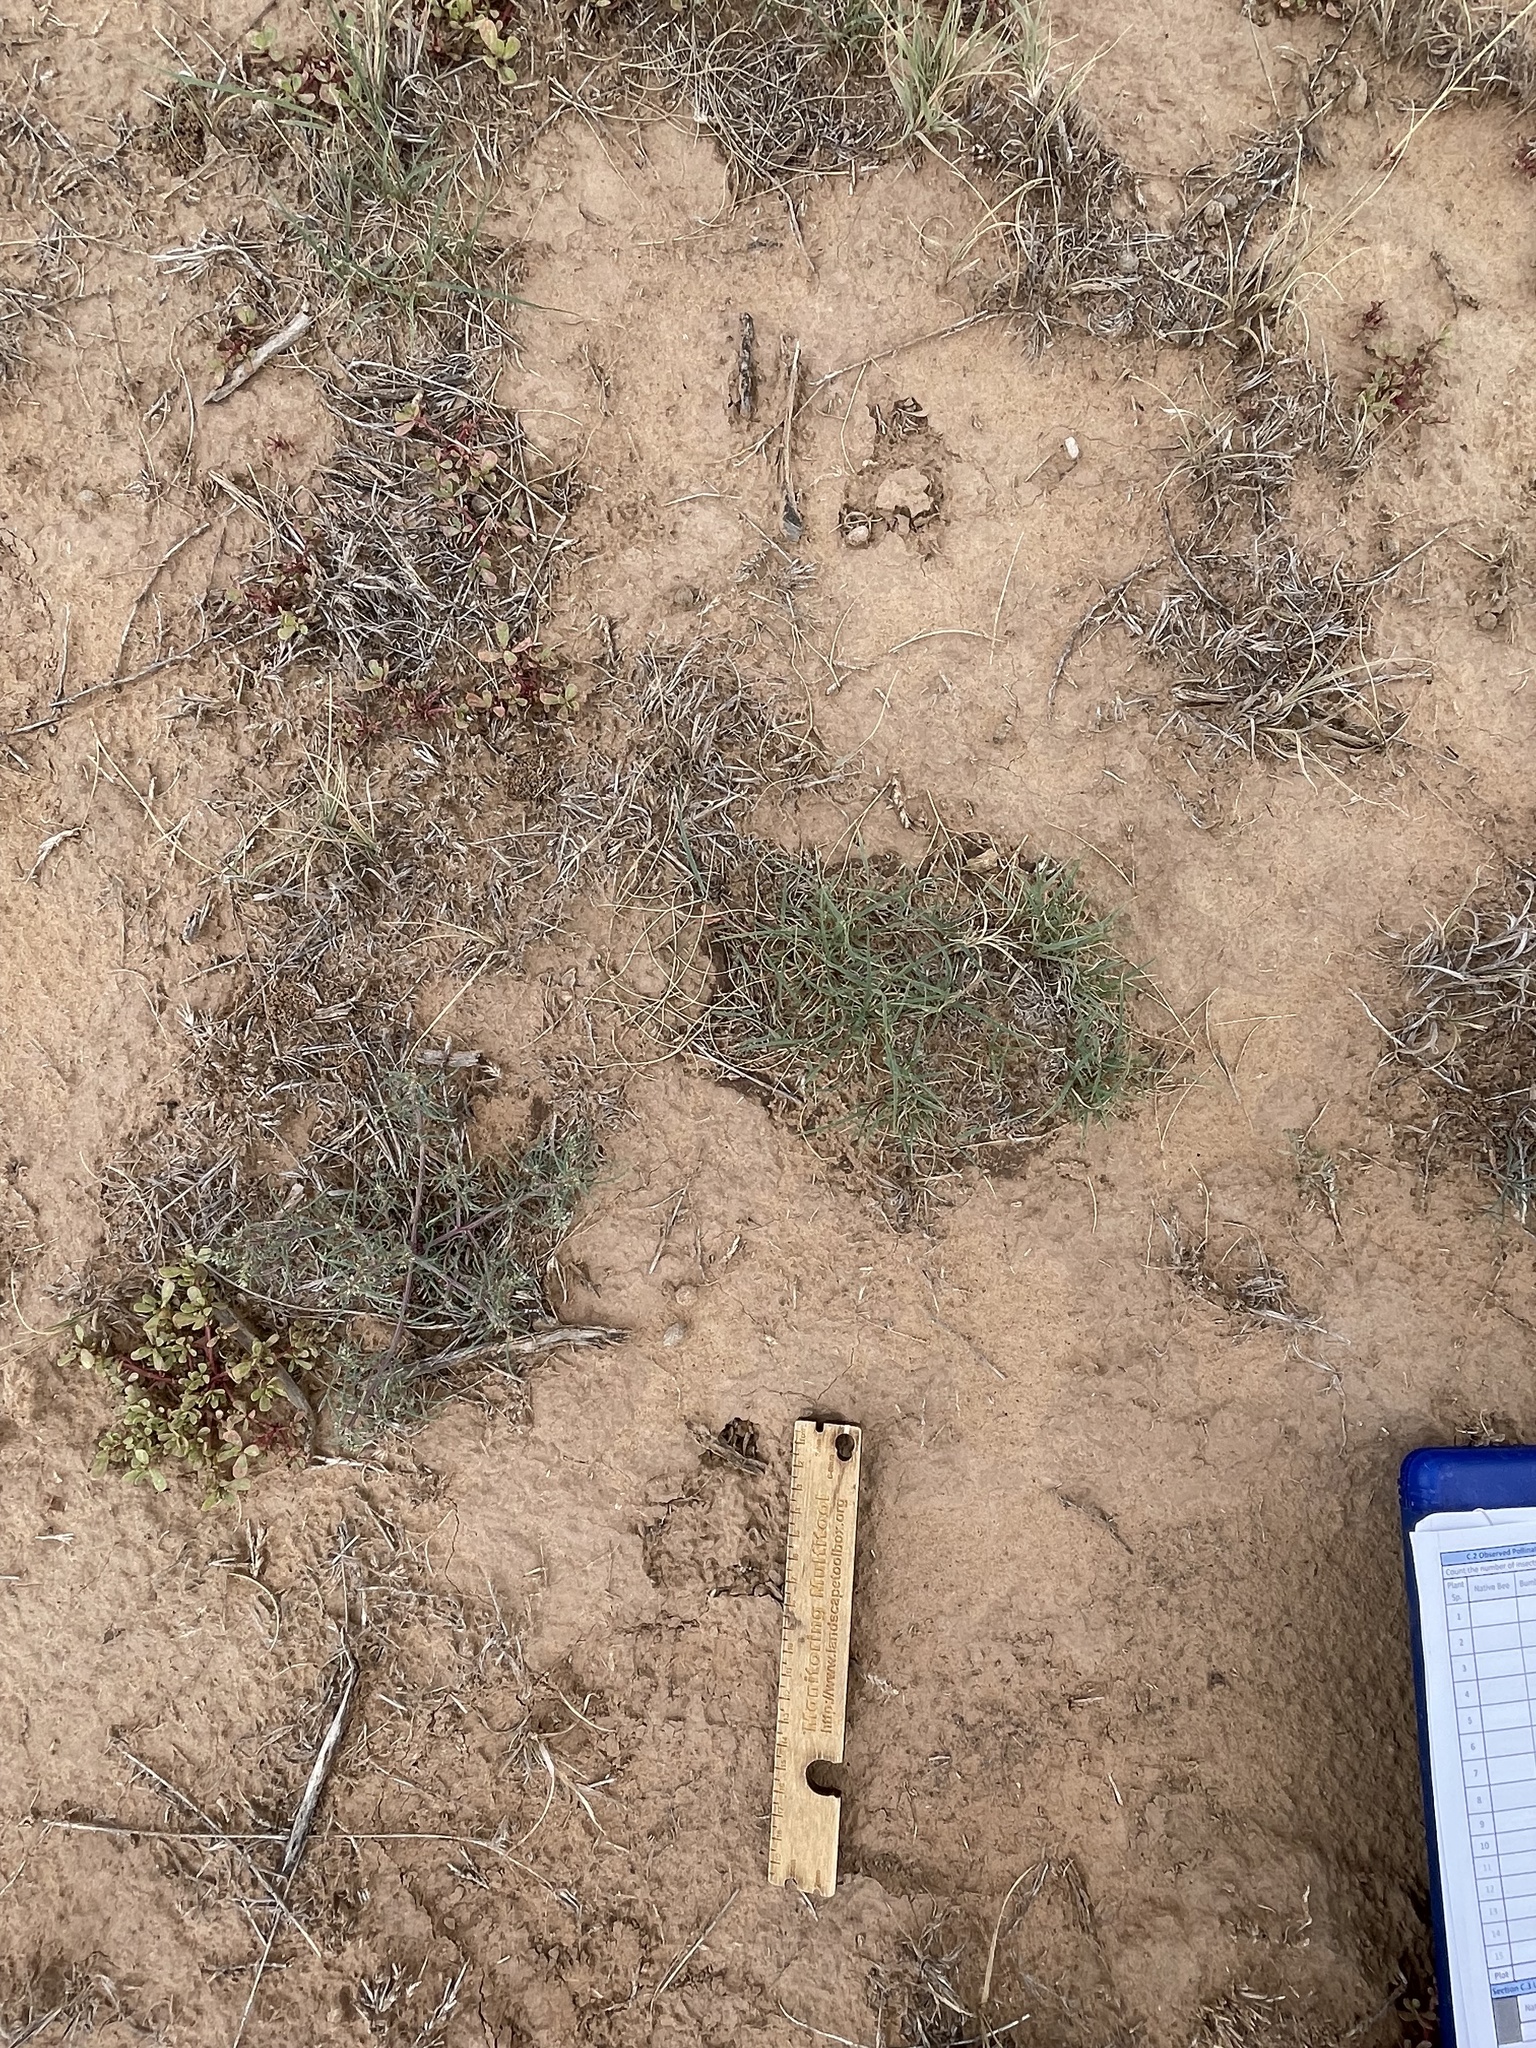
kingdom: Animalia
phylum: Chordata
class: Mammalia
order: Artiodactyla
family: Antilocapridae
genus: Antilocapra
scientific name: Antilocapra americana
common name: Pronghorn
